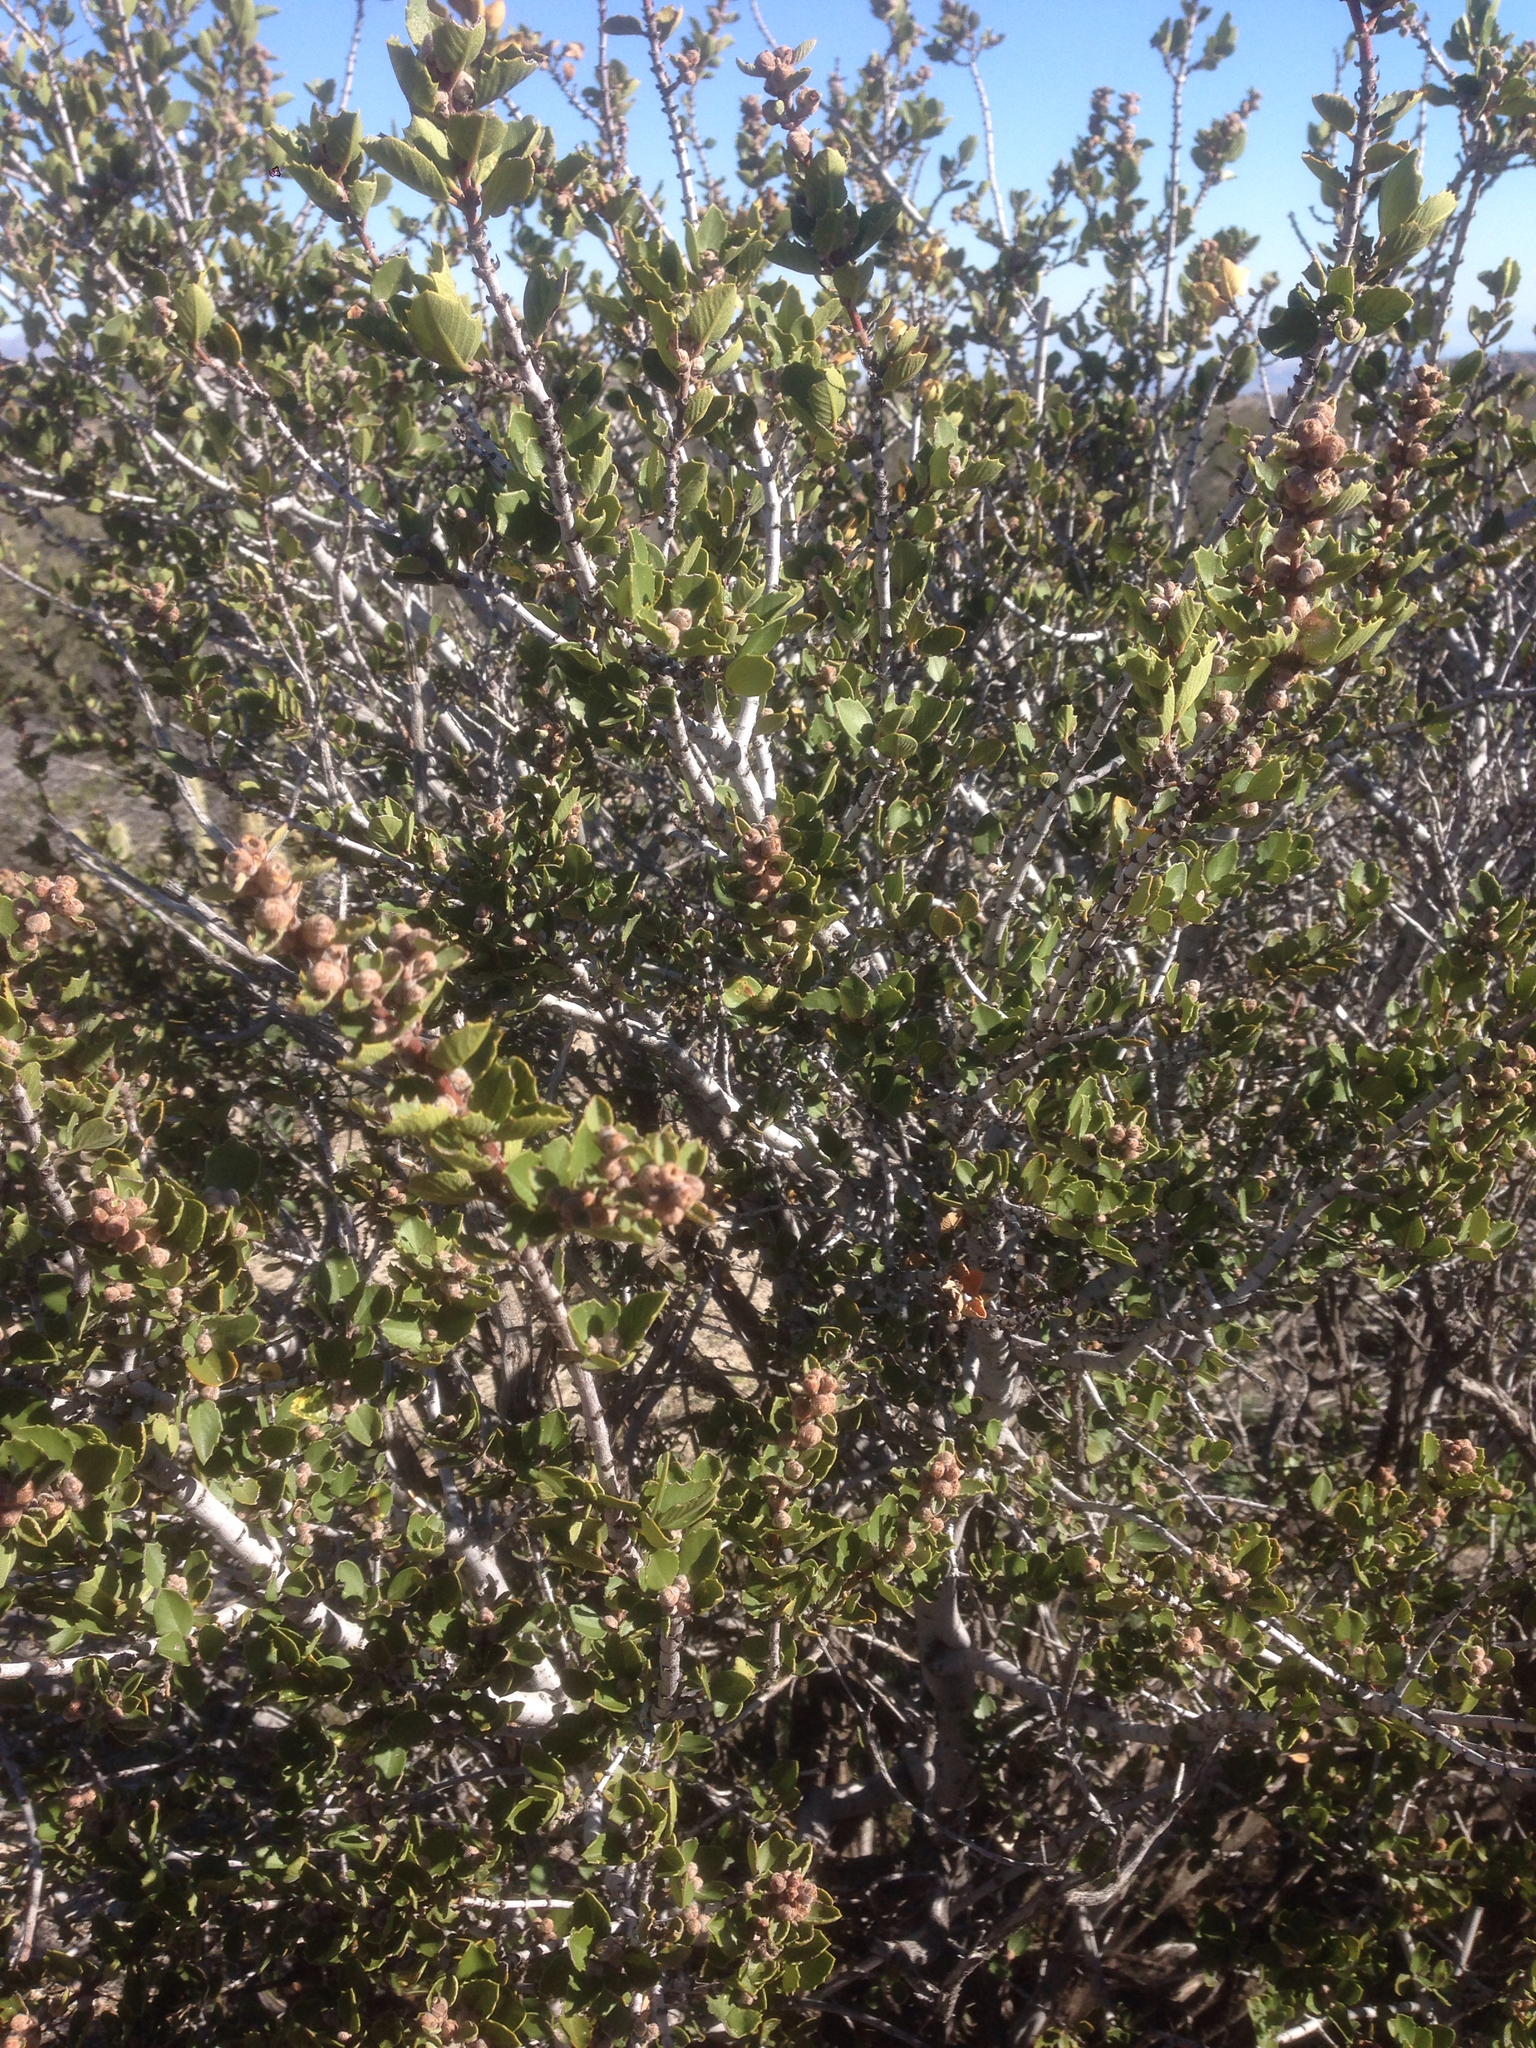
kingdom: Plantae
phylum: Tracheophyta
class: Magnoliopsida
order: Rosales
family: Rhamnaceae
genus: Ceanothus
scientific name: Ceanothus perplexans
